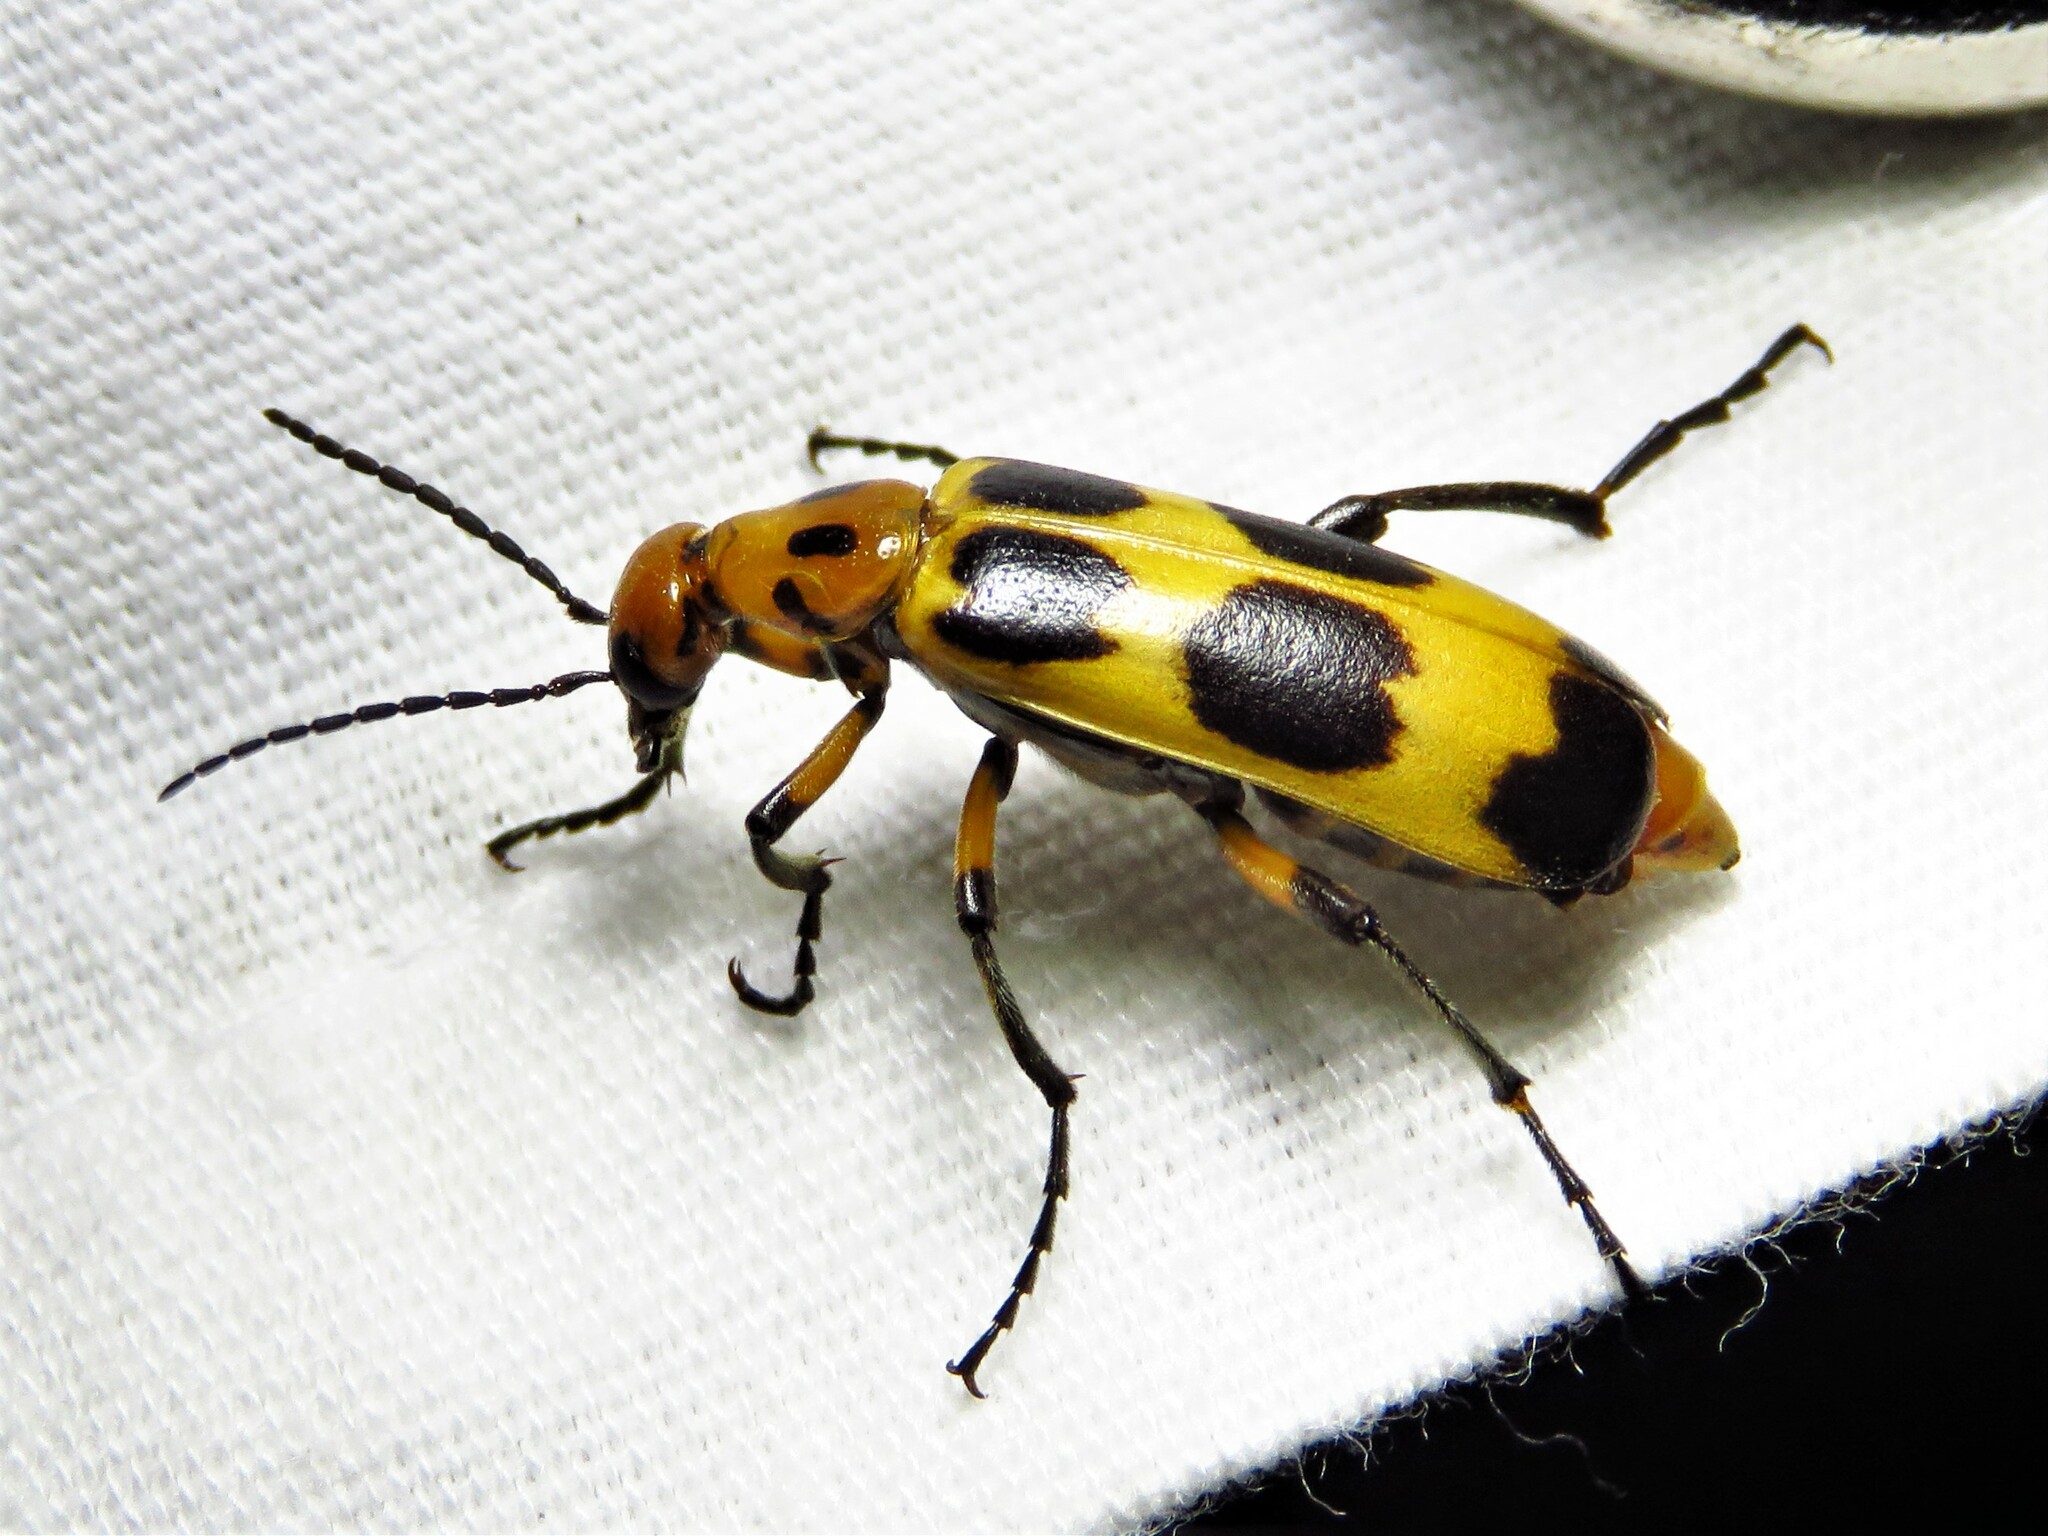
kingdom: Animalia
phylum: Arthropoda
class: Insecta
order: Coleoptera
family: Meloidae
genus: Pyrota
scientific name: Pyrota perversa
